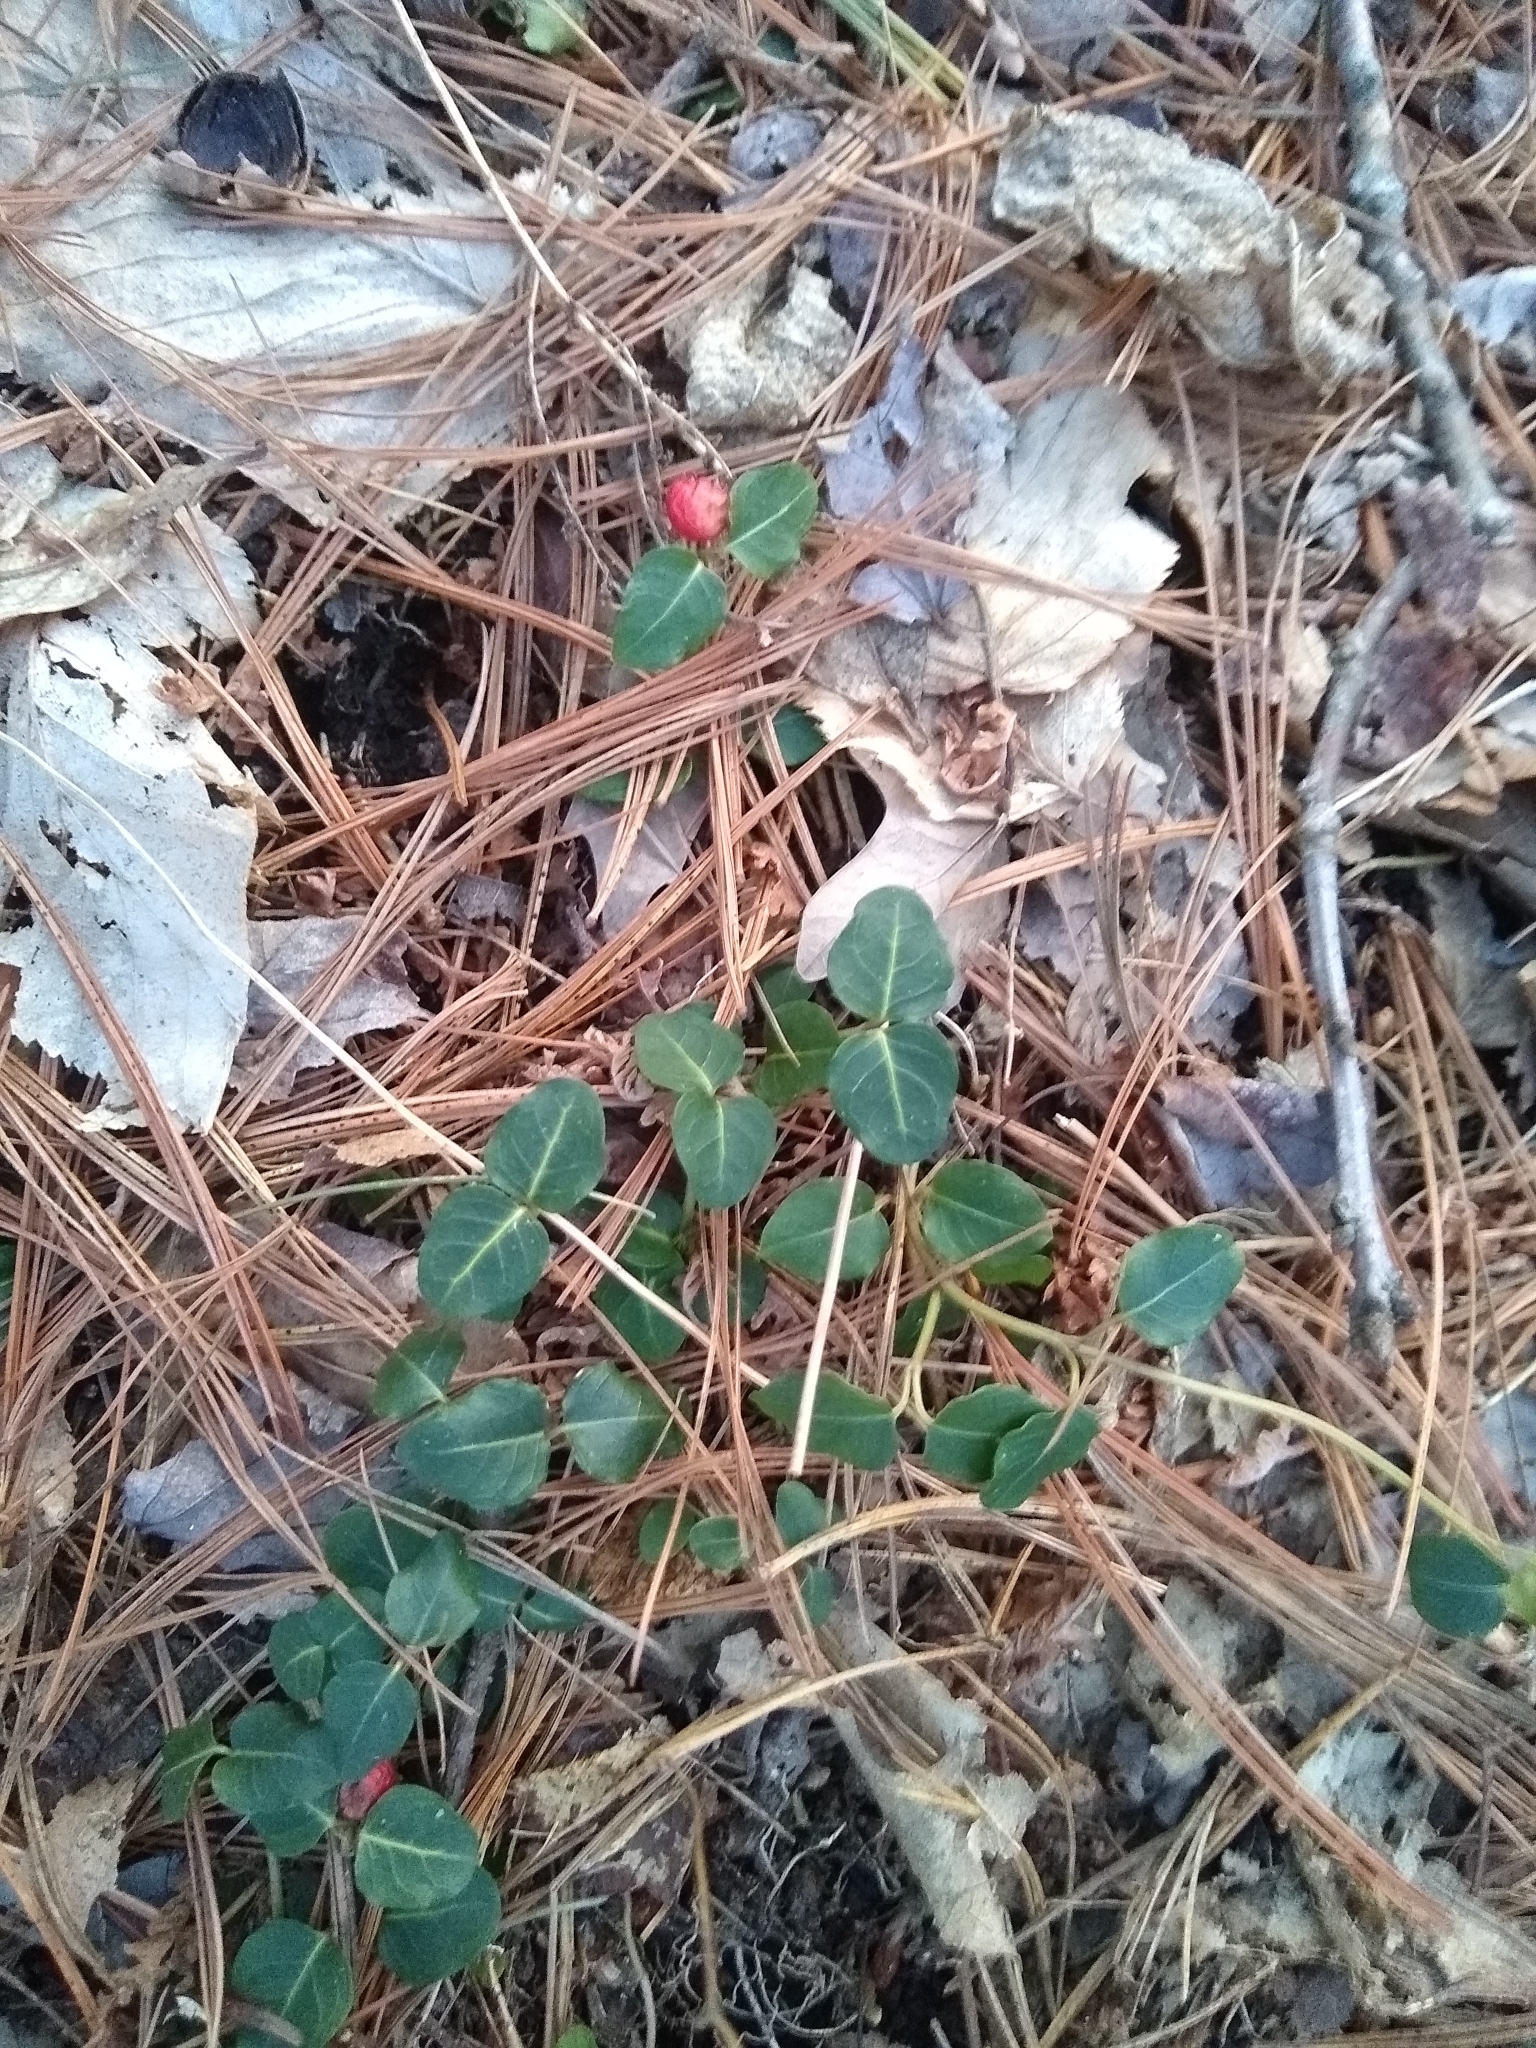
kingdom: Plantae
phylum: Tracheophyta
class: Magnoliopsida
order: Gentianales
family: Rubiaceae
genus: Mitchella
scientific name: Mitchella repens
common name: Partridge-berry
